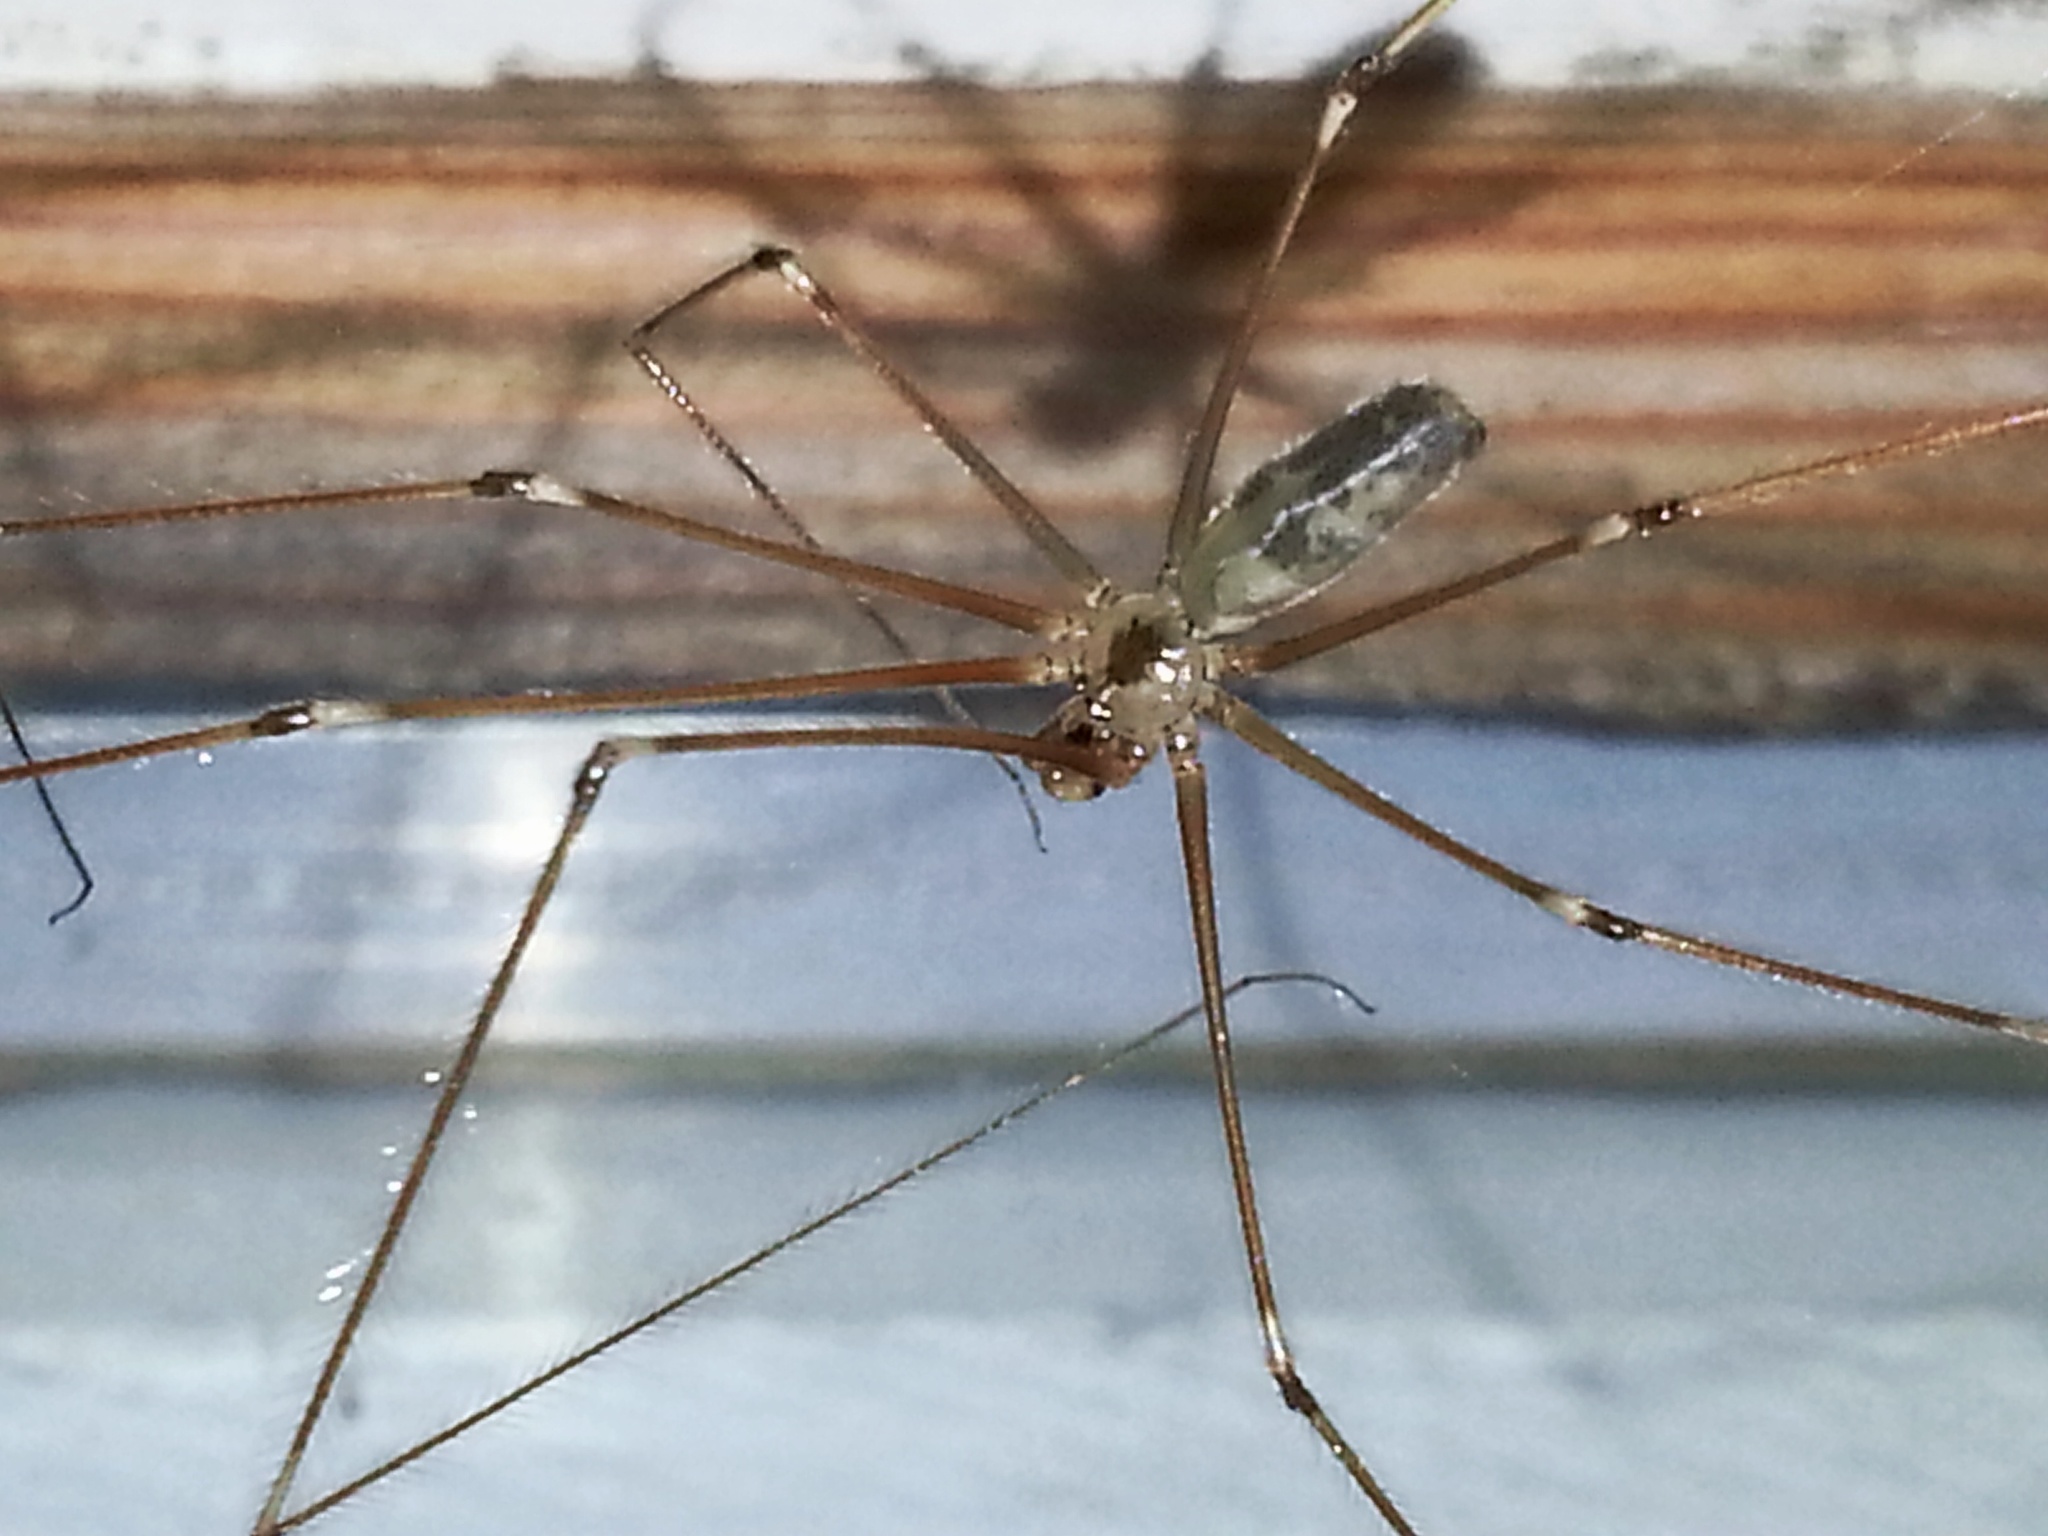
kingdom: Animalia
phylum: Arthropoda
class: Arachnida
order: Araneae
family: Pholcidae
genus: Pholcus
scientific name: Pholcus phalangioides
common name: Longbodied cellar spider
